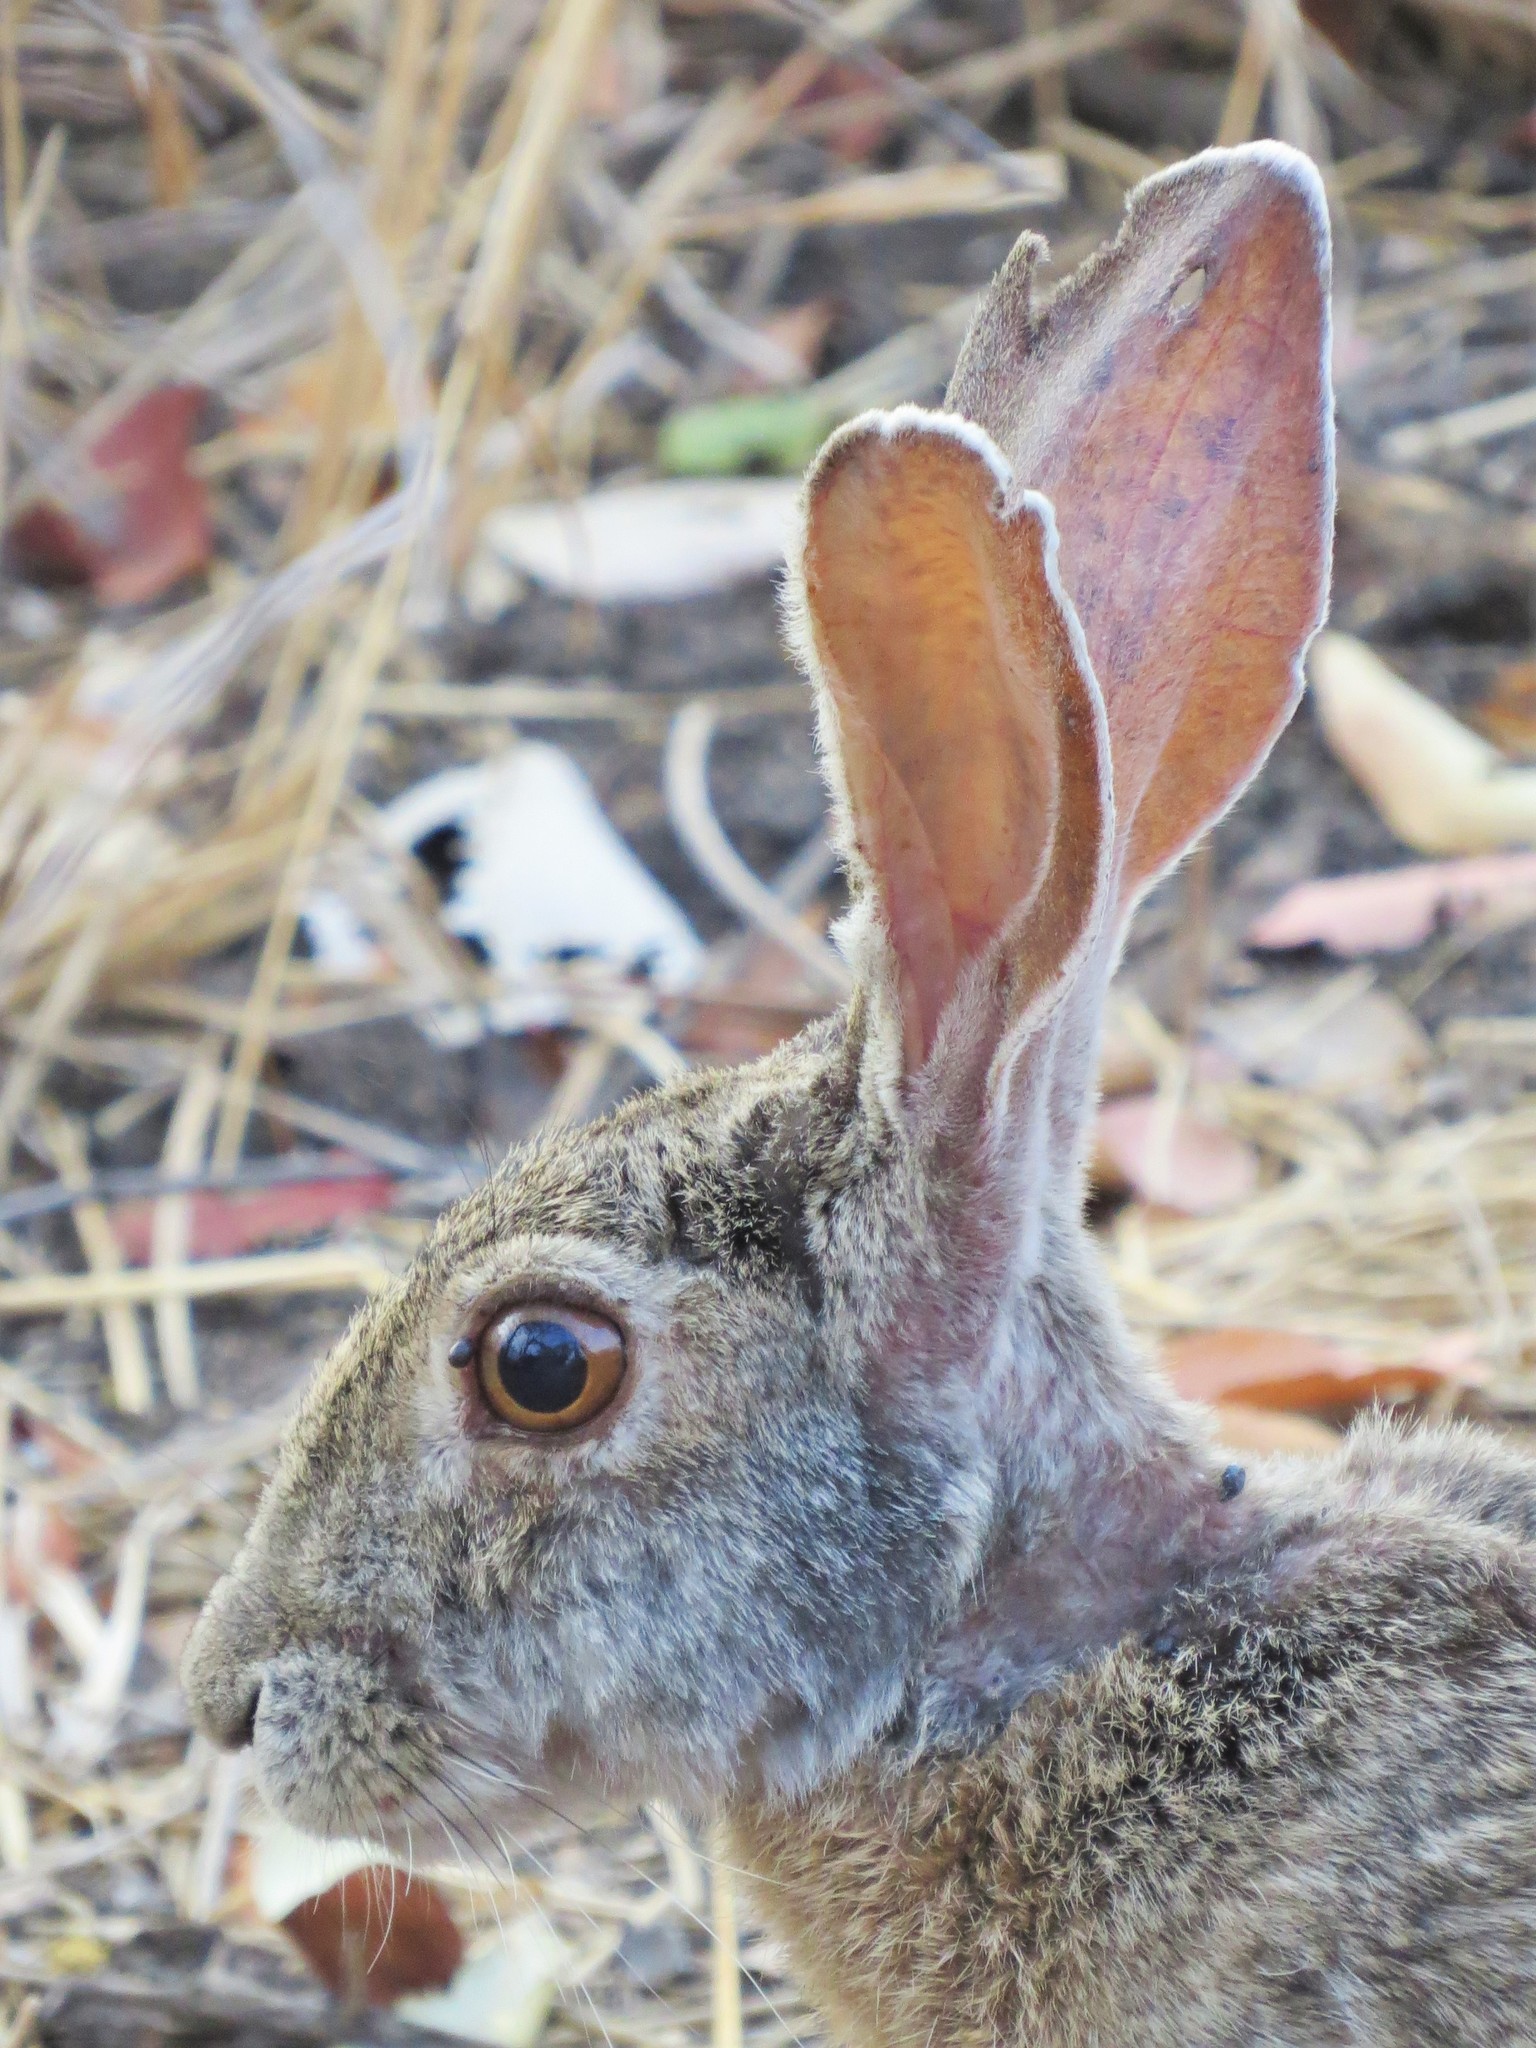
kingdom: Animalia
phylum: Chordata
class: Mammalia
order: Lagomorpha
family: Leporidae
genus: Lepus
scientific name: Lepus saxatilis
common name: Scrub hare
